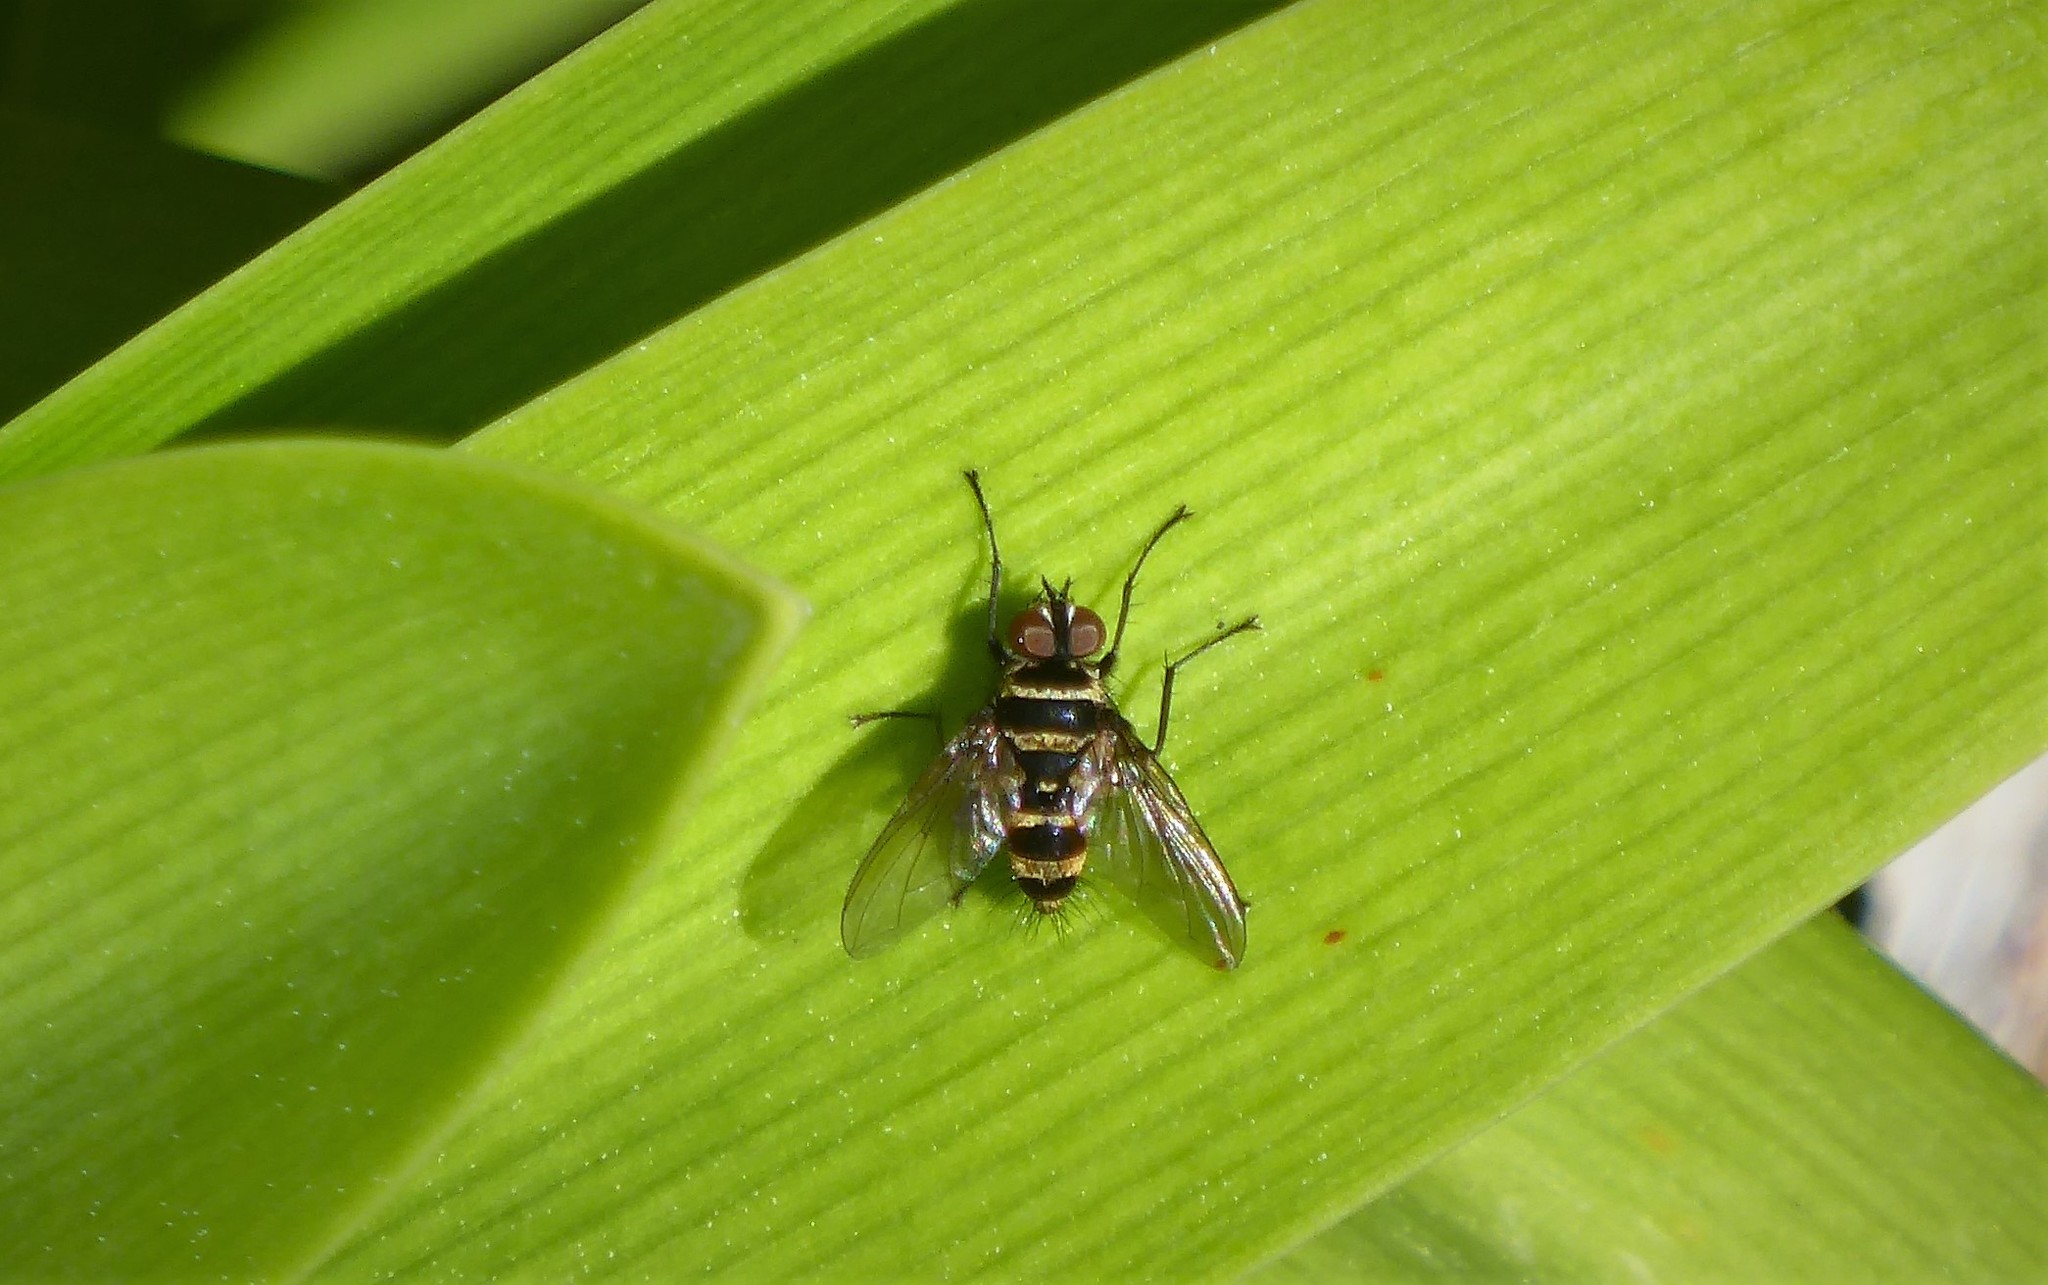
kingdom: Animalia
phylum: Arthropoda
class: Insecta
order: Diptera
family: Tachinidae
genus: Trigonospila
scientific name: Trigonospila brevifacies
